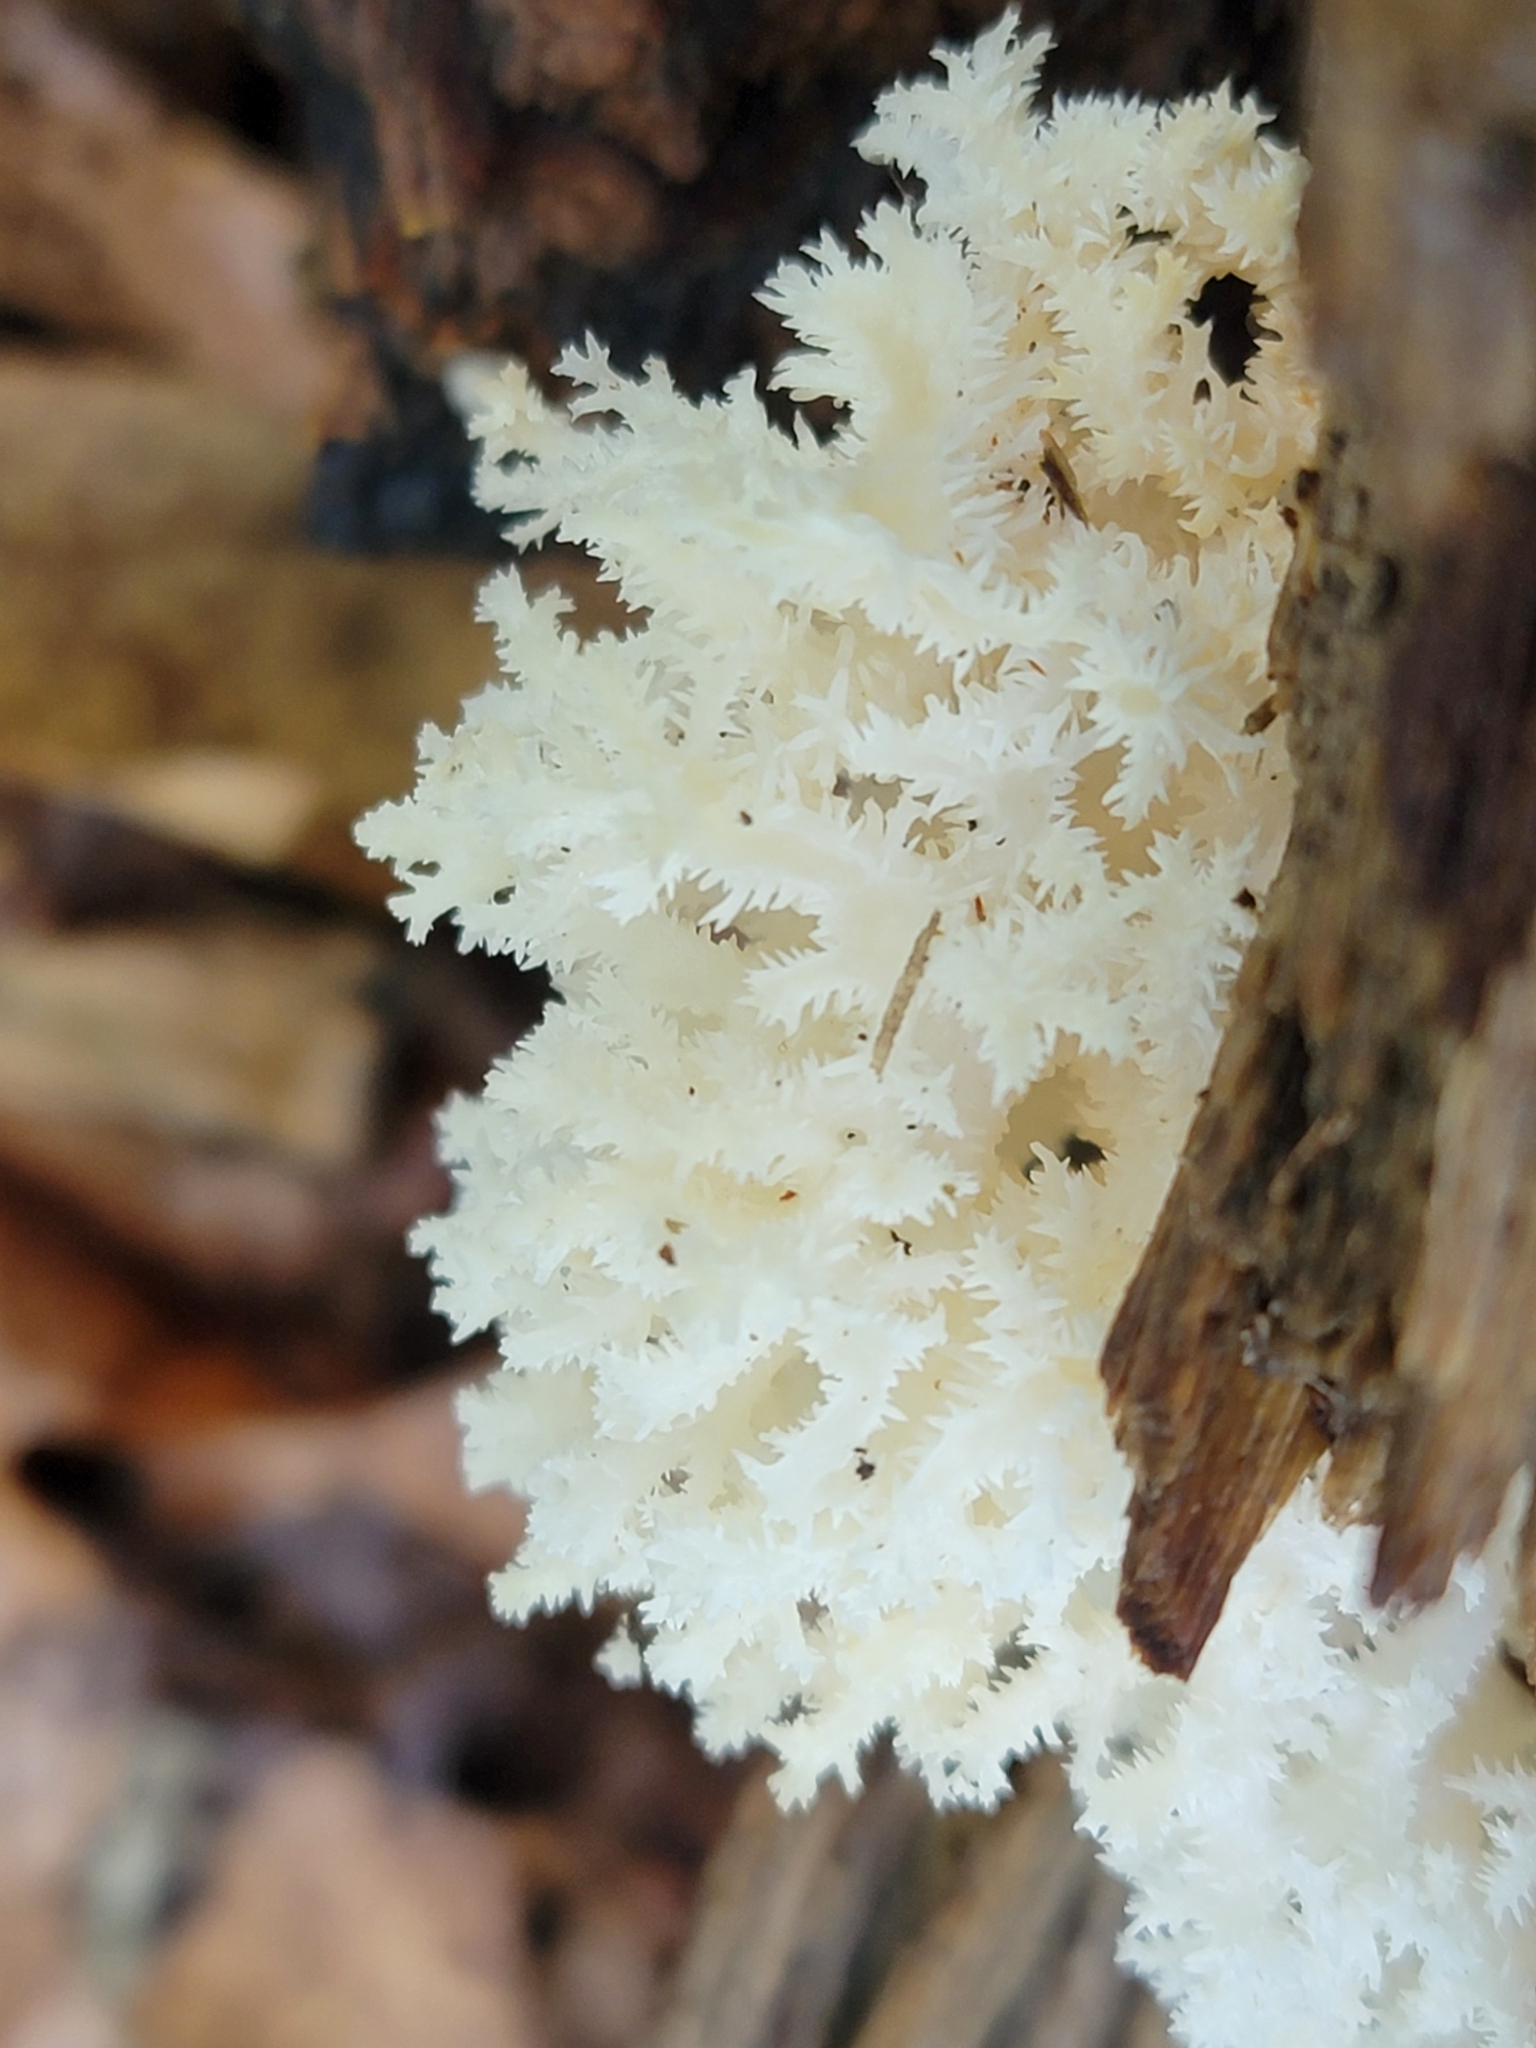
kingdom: Fungi
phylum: Basidiomycota
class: Agaricomycetes
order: Russulales
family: Hericiaceae
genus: Hericium
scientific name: Hericium coralloides
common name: Coral tooth
